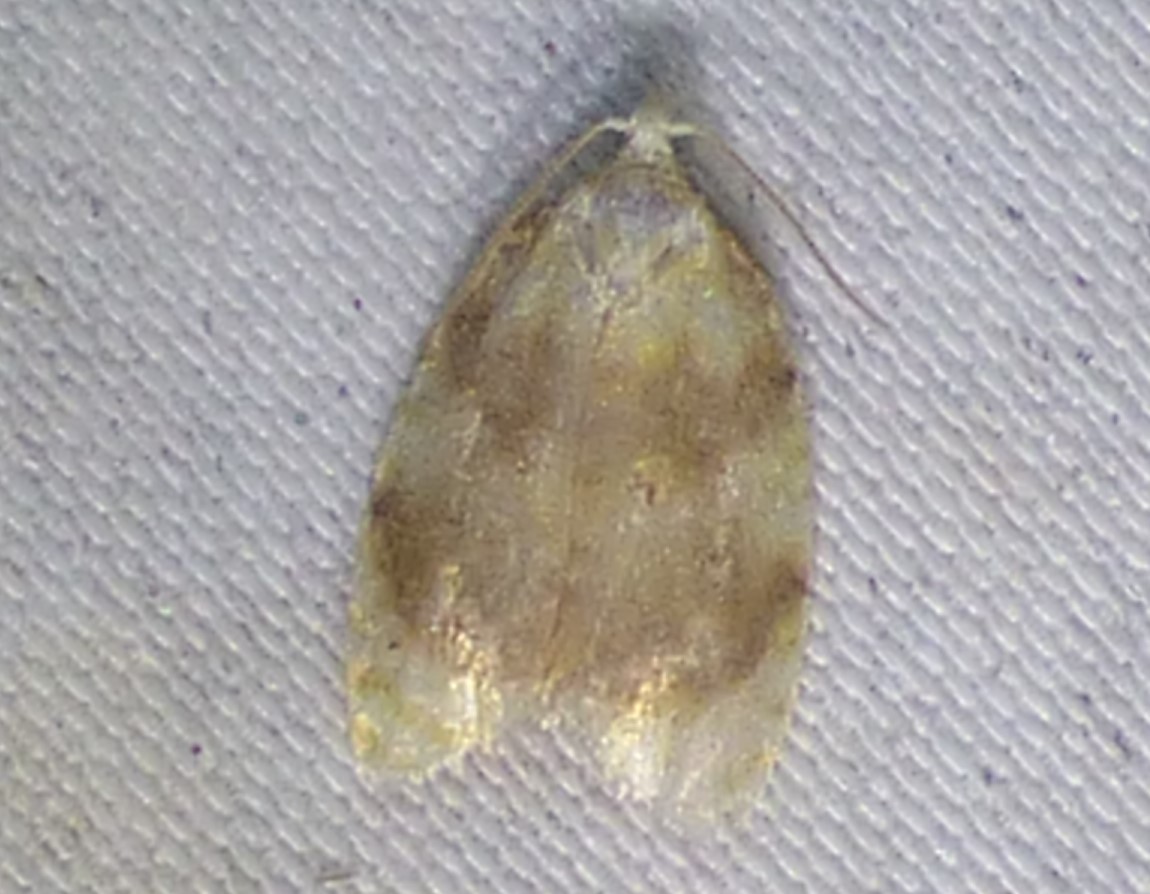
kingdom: Animalia
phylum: Arthropoda
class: Insecta
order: Lepidoptera
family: Tortricidae
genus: Acleris
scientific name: Acleris semipurpurana
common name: Oak leaftier moth
